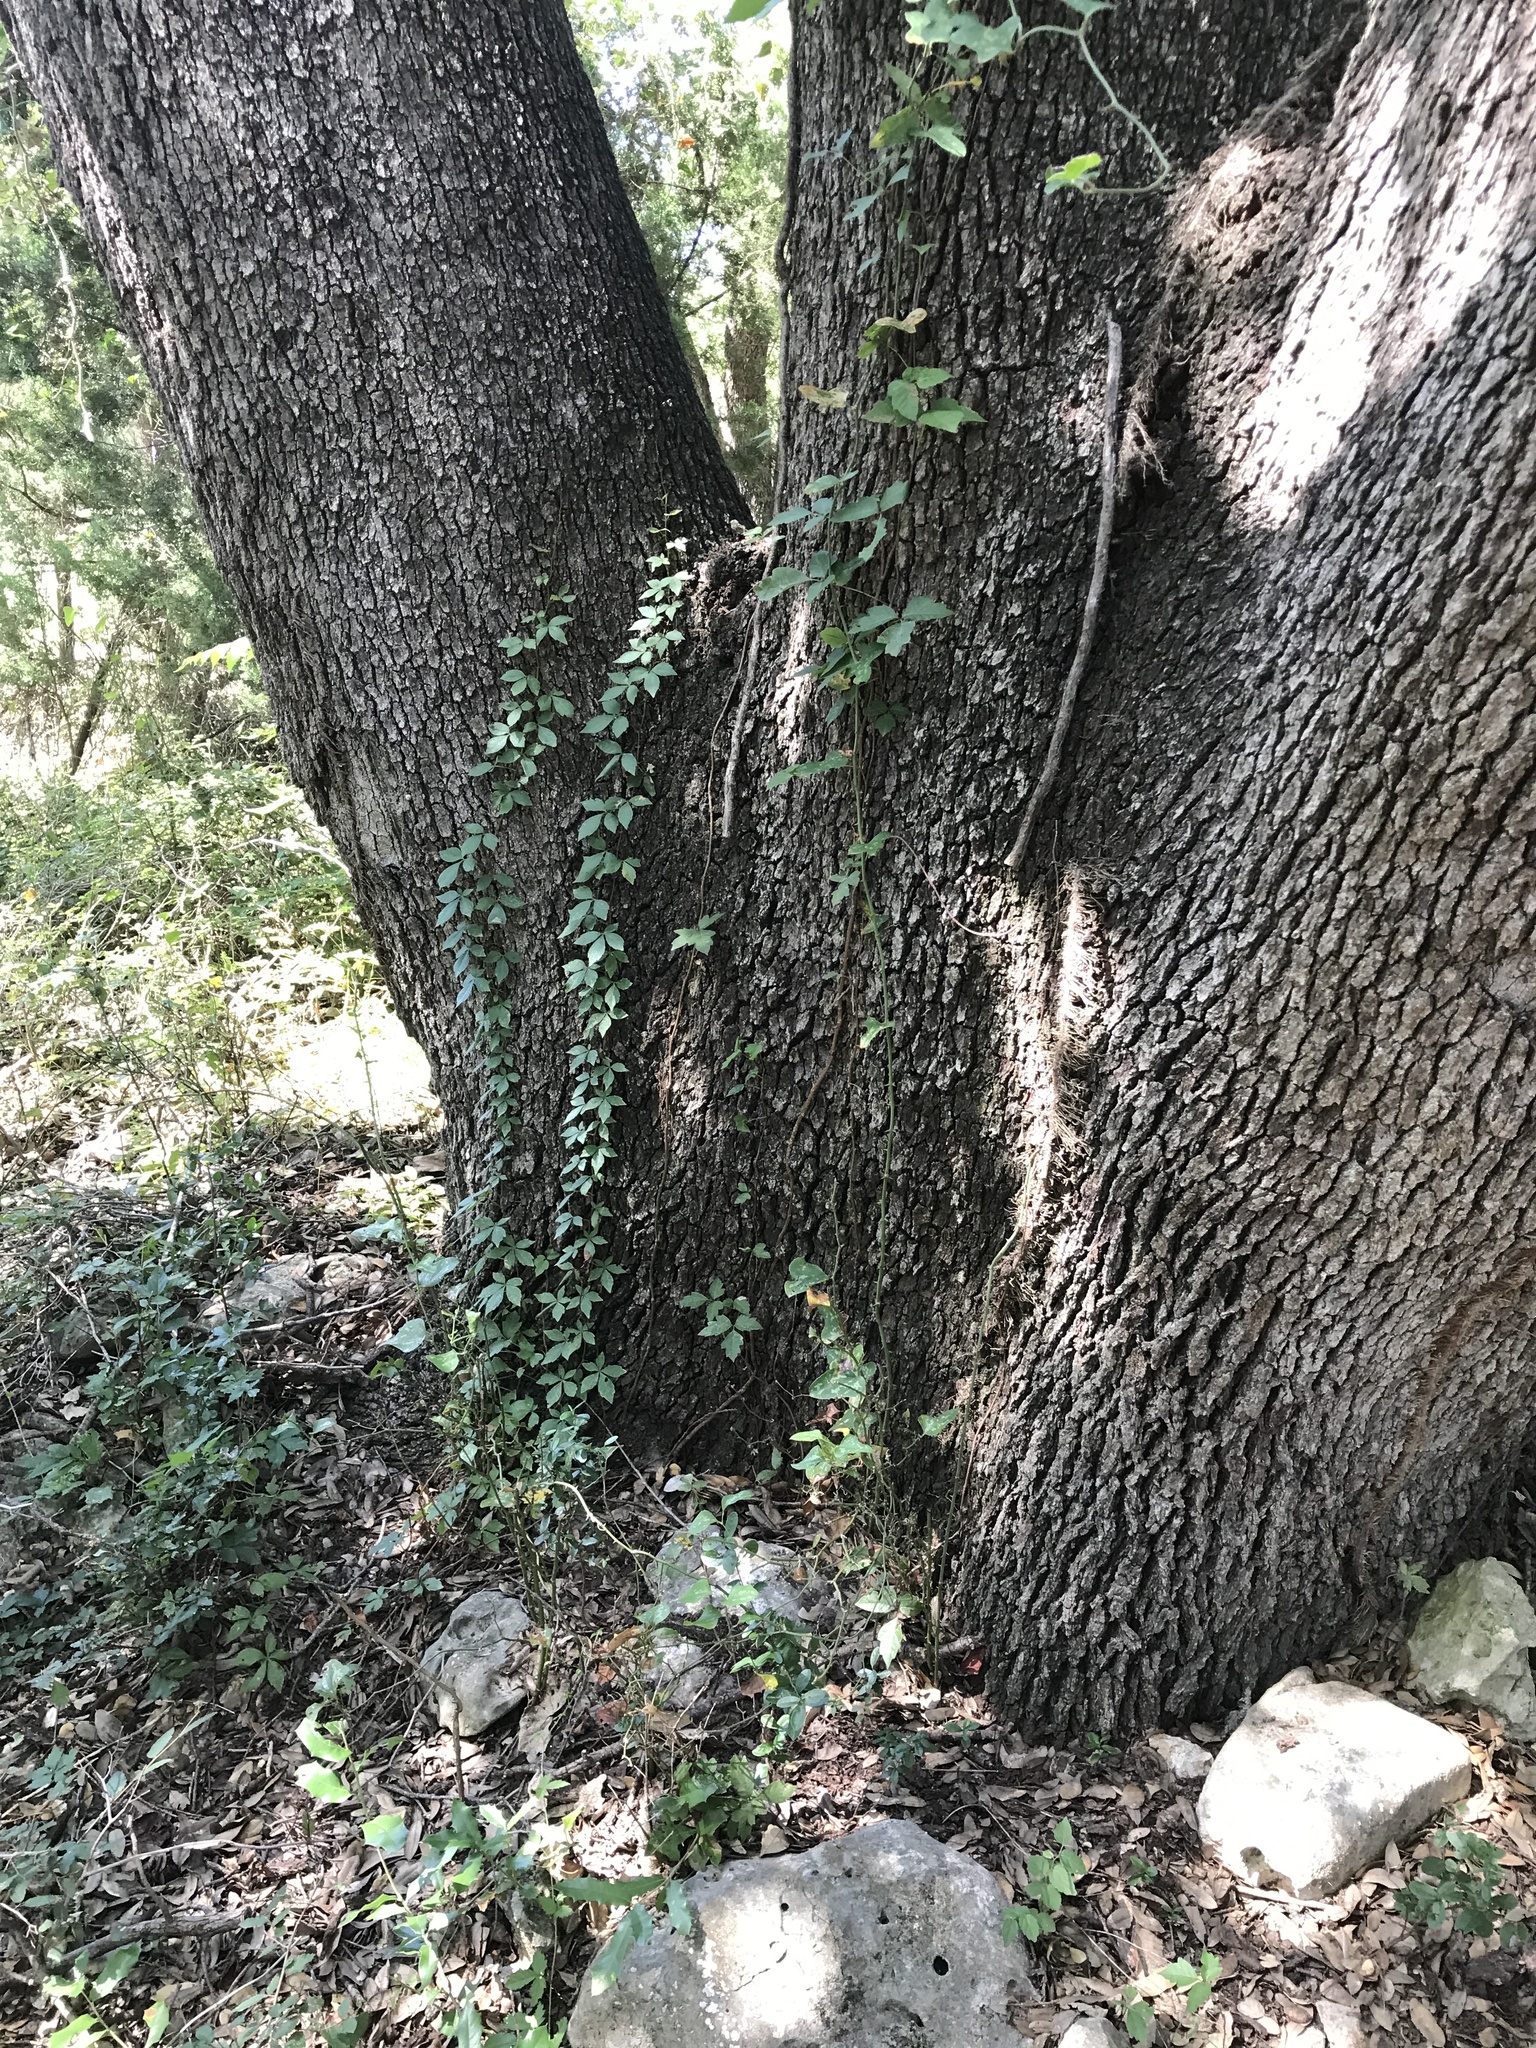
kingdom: Plantae
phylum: Tracheophyta
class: Magnoliopsida
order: Vitales
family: Vitaceae
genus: Parthenocissus
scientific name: Parthenocissus quinquefolia
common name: Virginia-creeper
